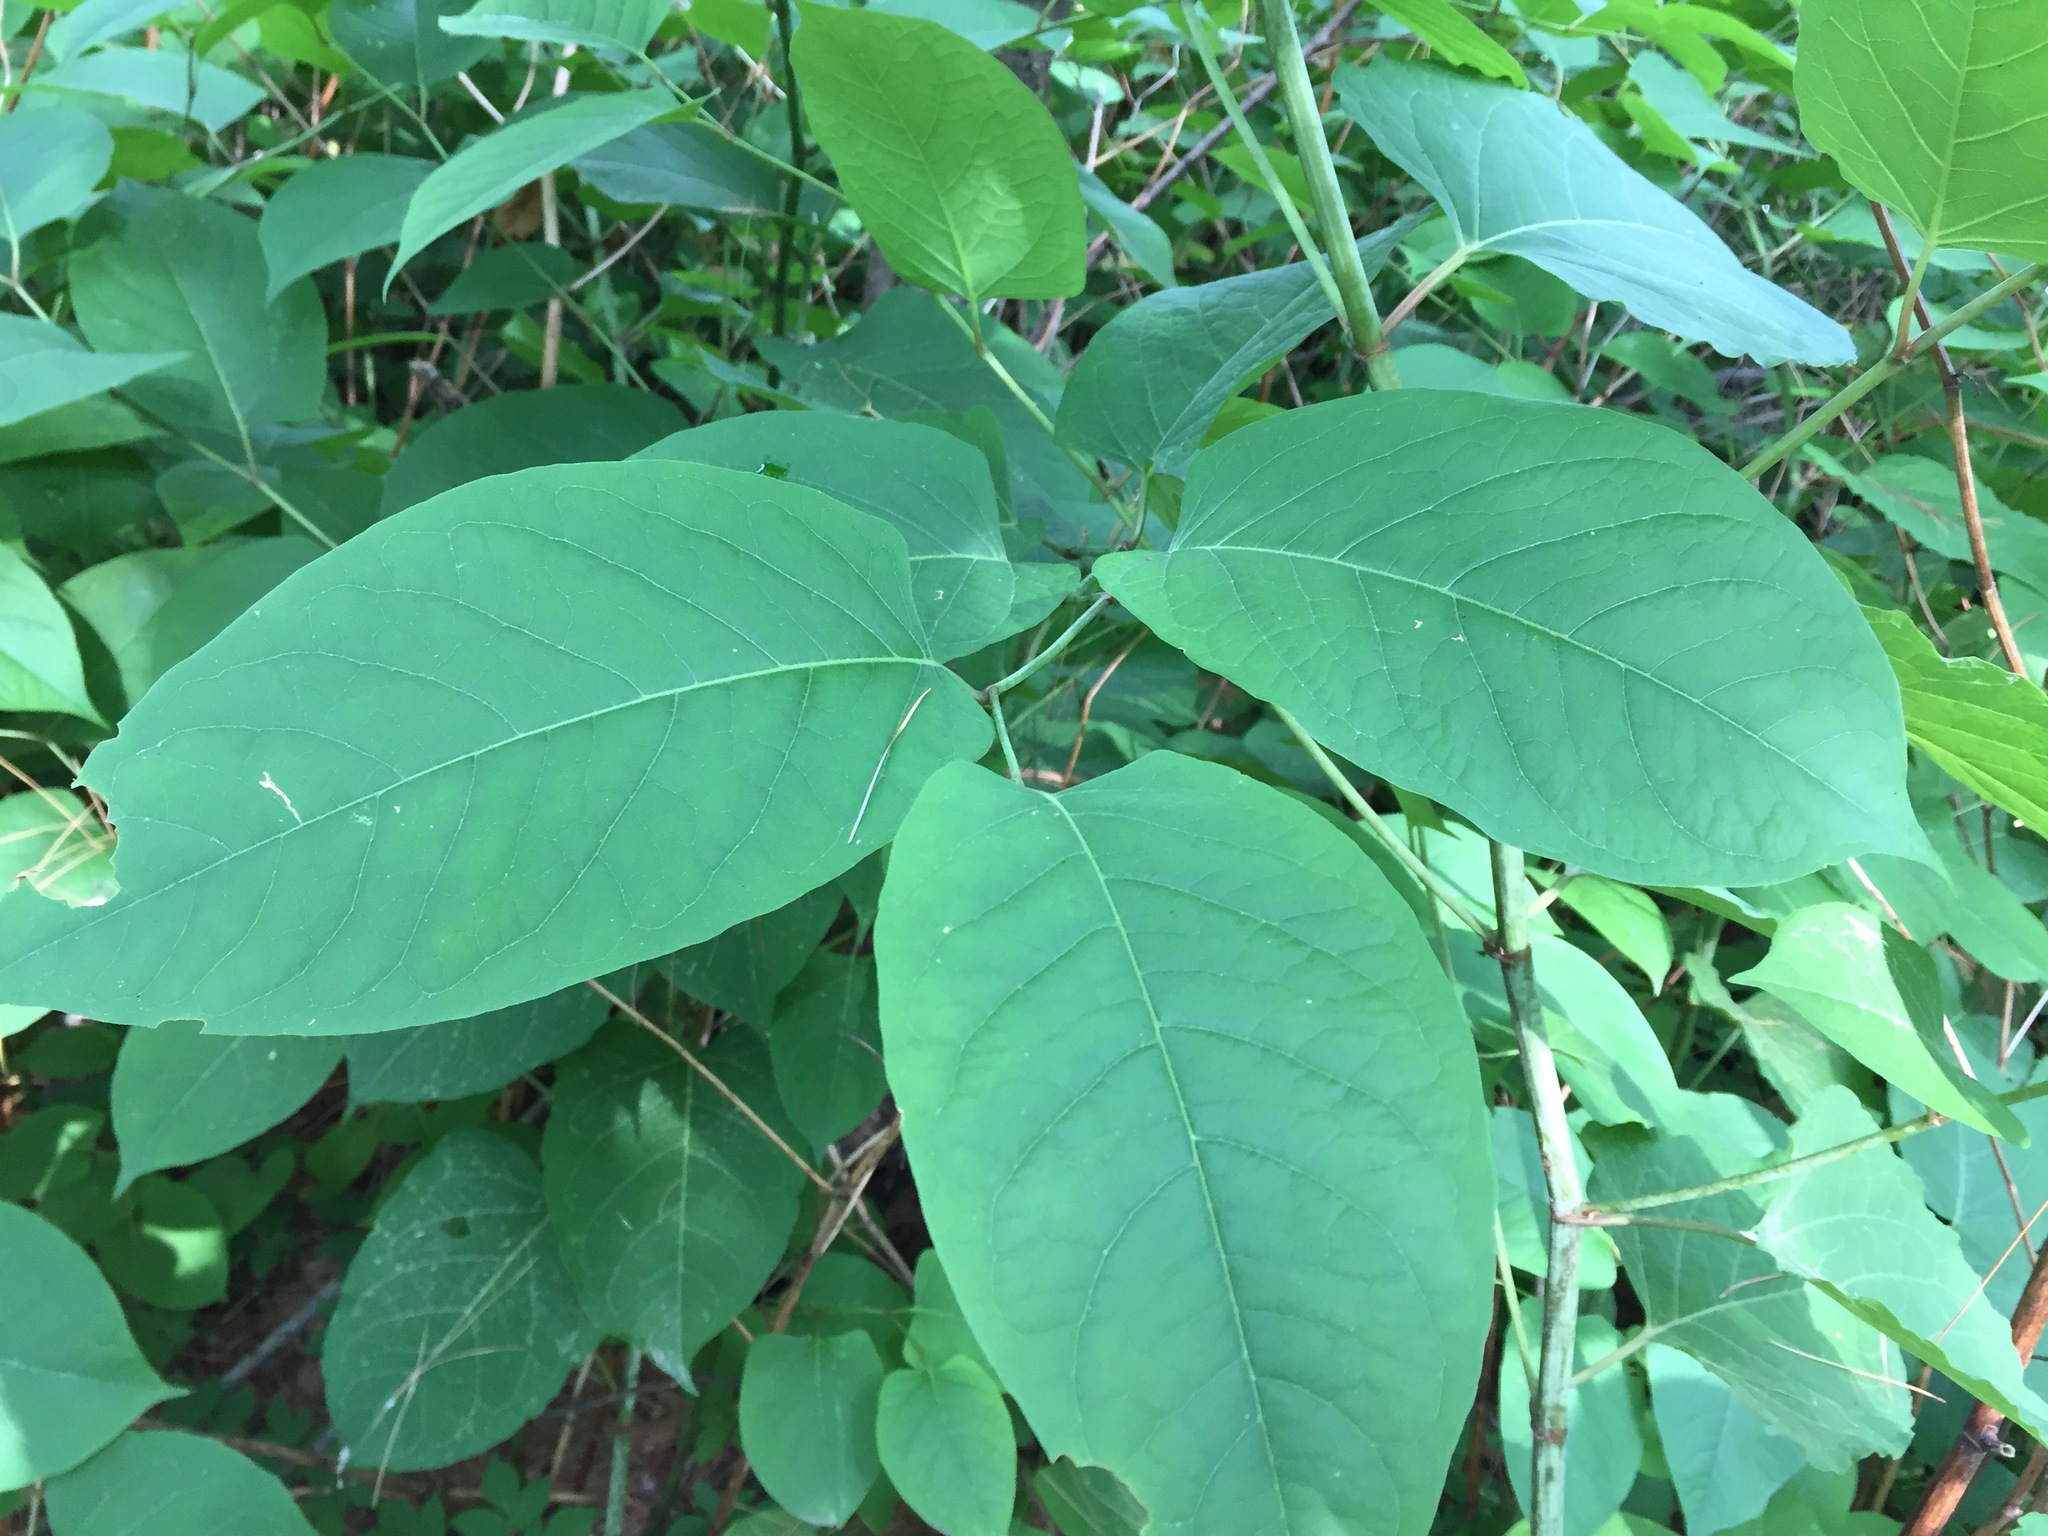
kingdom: Plantae
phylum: Tracheophyta
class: Magnoliopsida
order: Caryophyllales
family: Polygonaceae
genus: Reynoutria
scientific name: Reynoutria japonica
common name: Japanese knotweed
